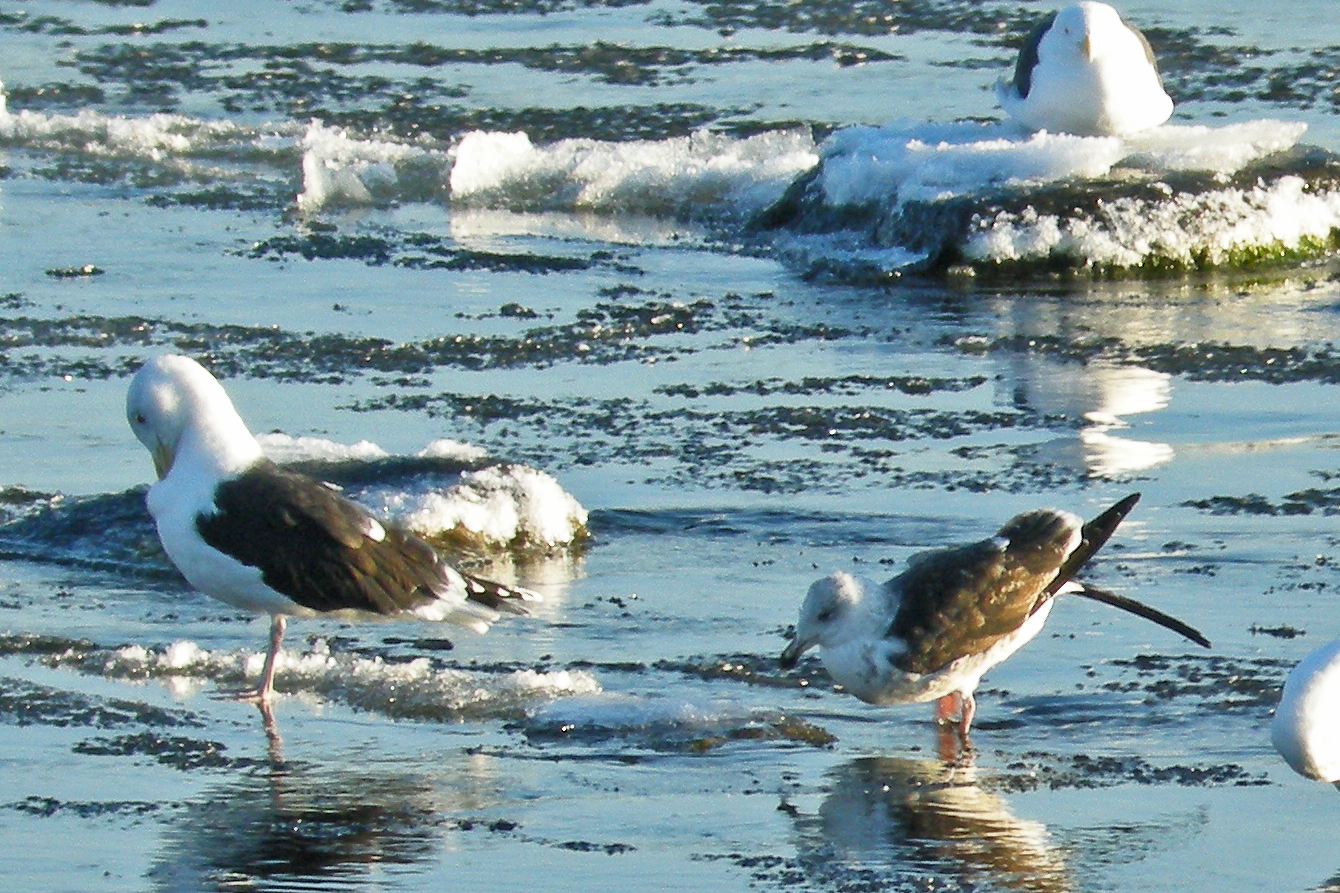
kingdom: Animalia
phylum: Chordata
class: Aves
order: Charadriiformes
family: Laridae
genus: Larus
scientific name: Larus fuscus
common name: Lesser black-backed gull
